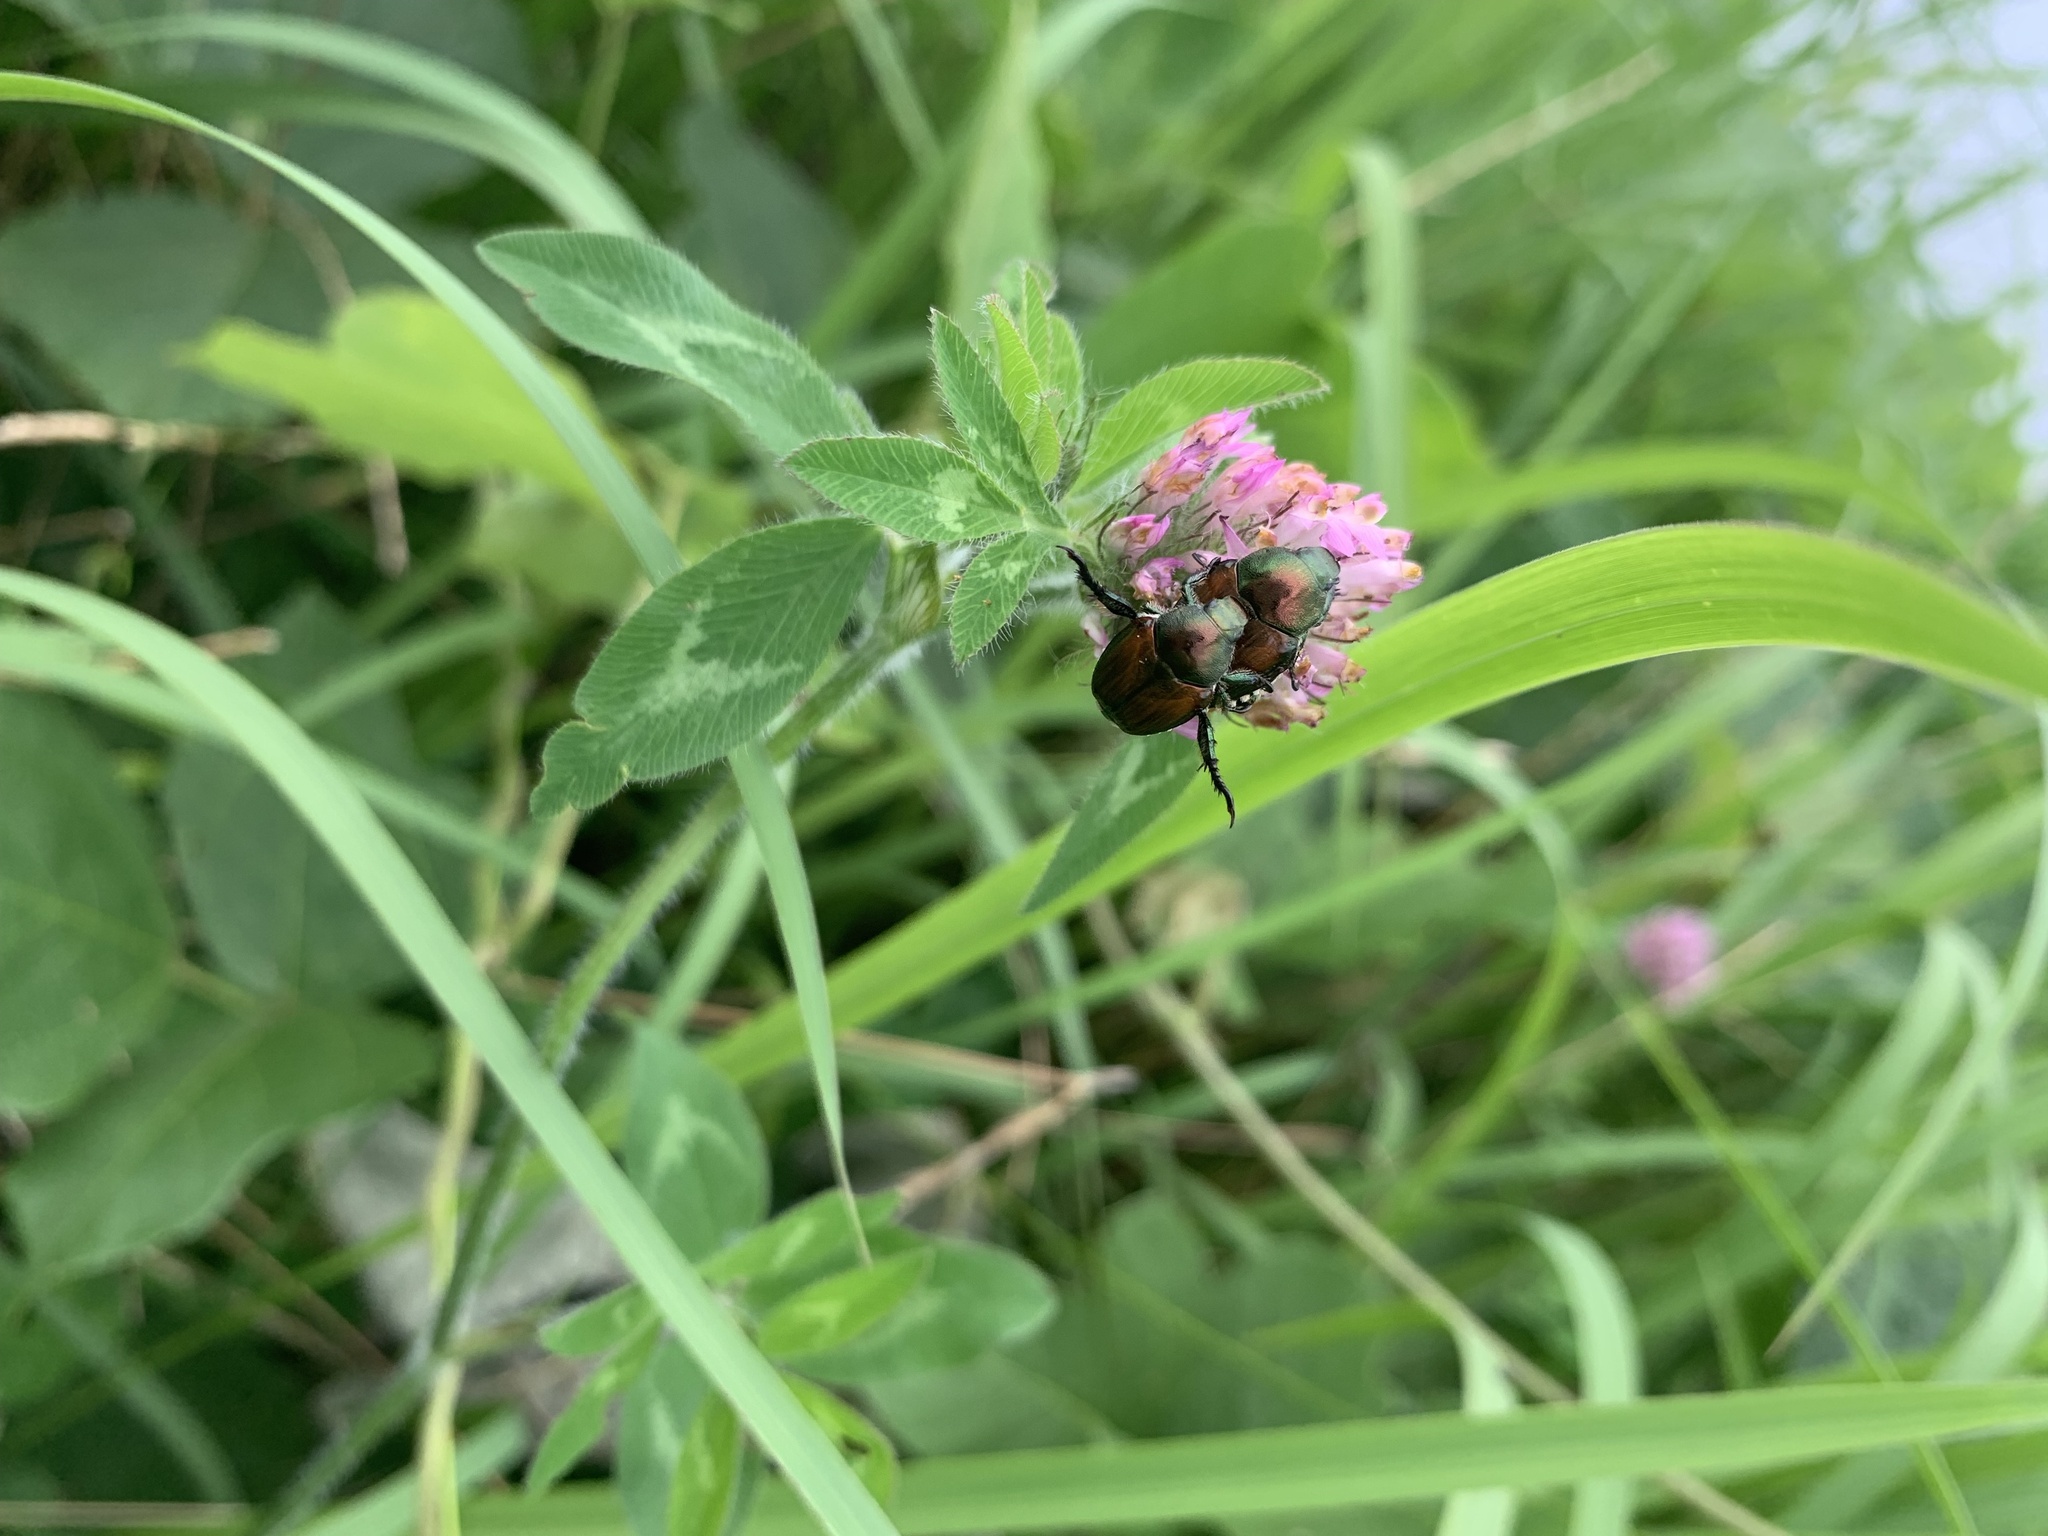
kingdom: Animalia
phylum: Arthropoda
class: Insecta
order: Coleoptera
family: Scarabaeidae
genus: Popillia
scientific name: Popillia japonica
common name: Japanese beetle
